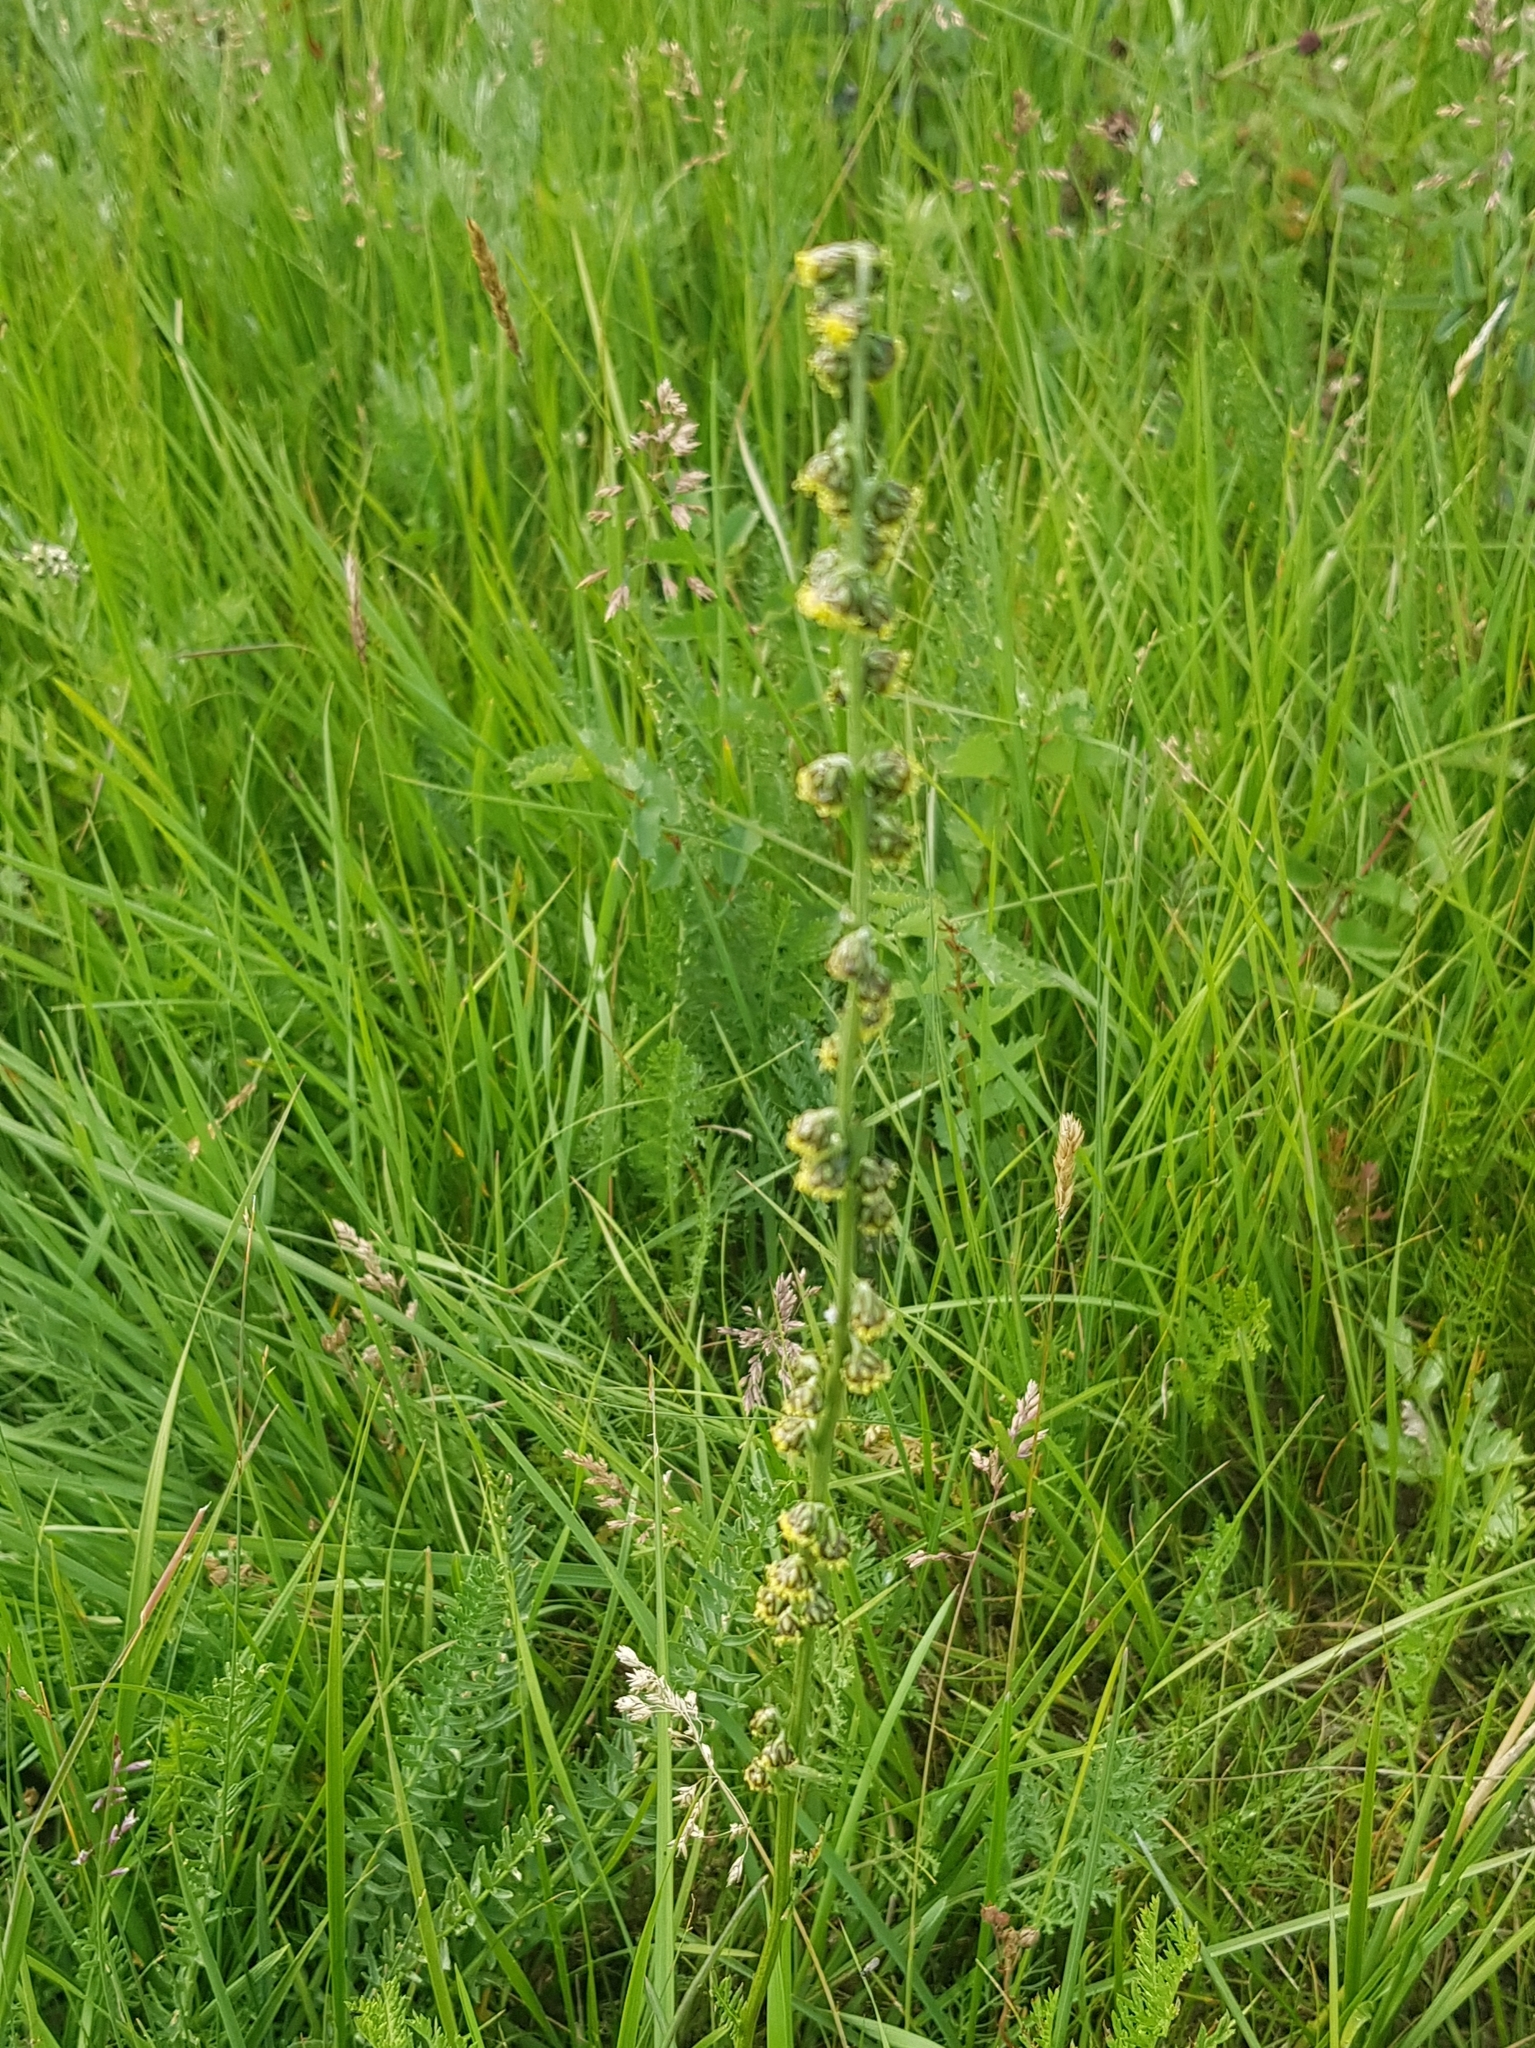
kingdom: Plantae
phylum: Tracheophyta
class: Magnoliopsida
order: Asterales
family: Asteraceae
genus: Artemisia
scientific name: Artemisia laciniata
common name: Siberian wormwood
